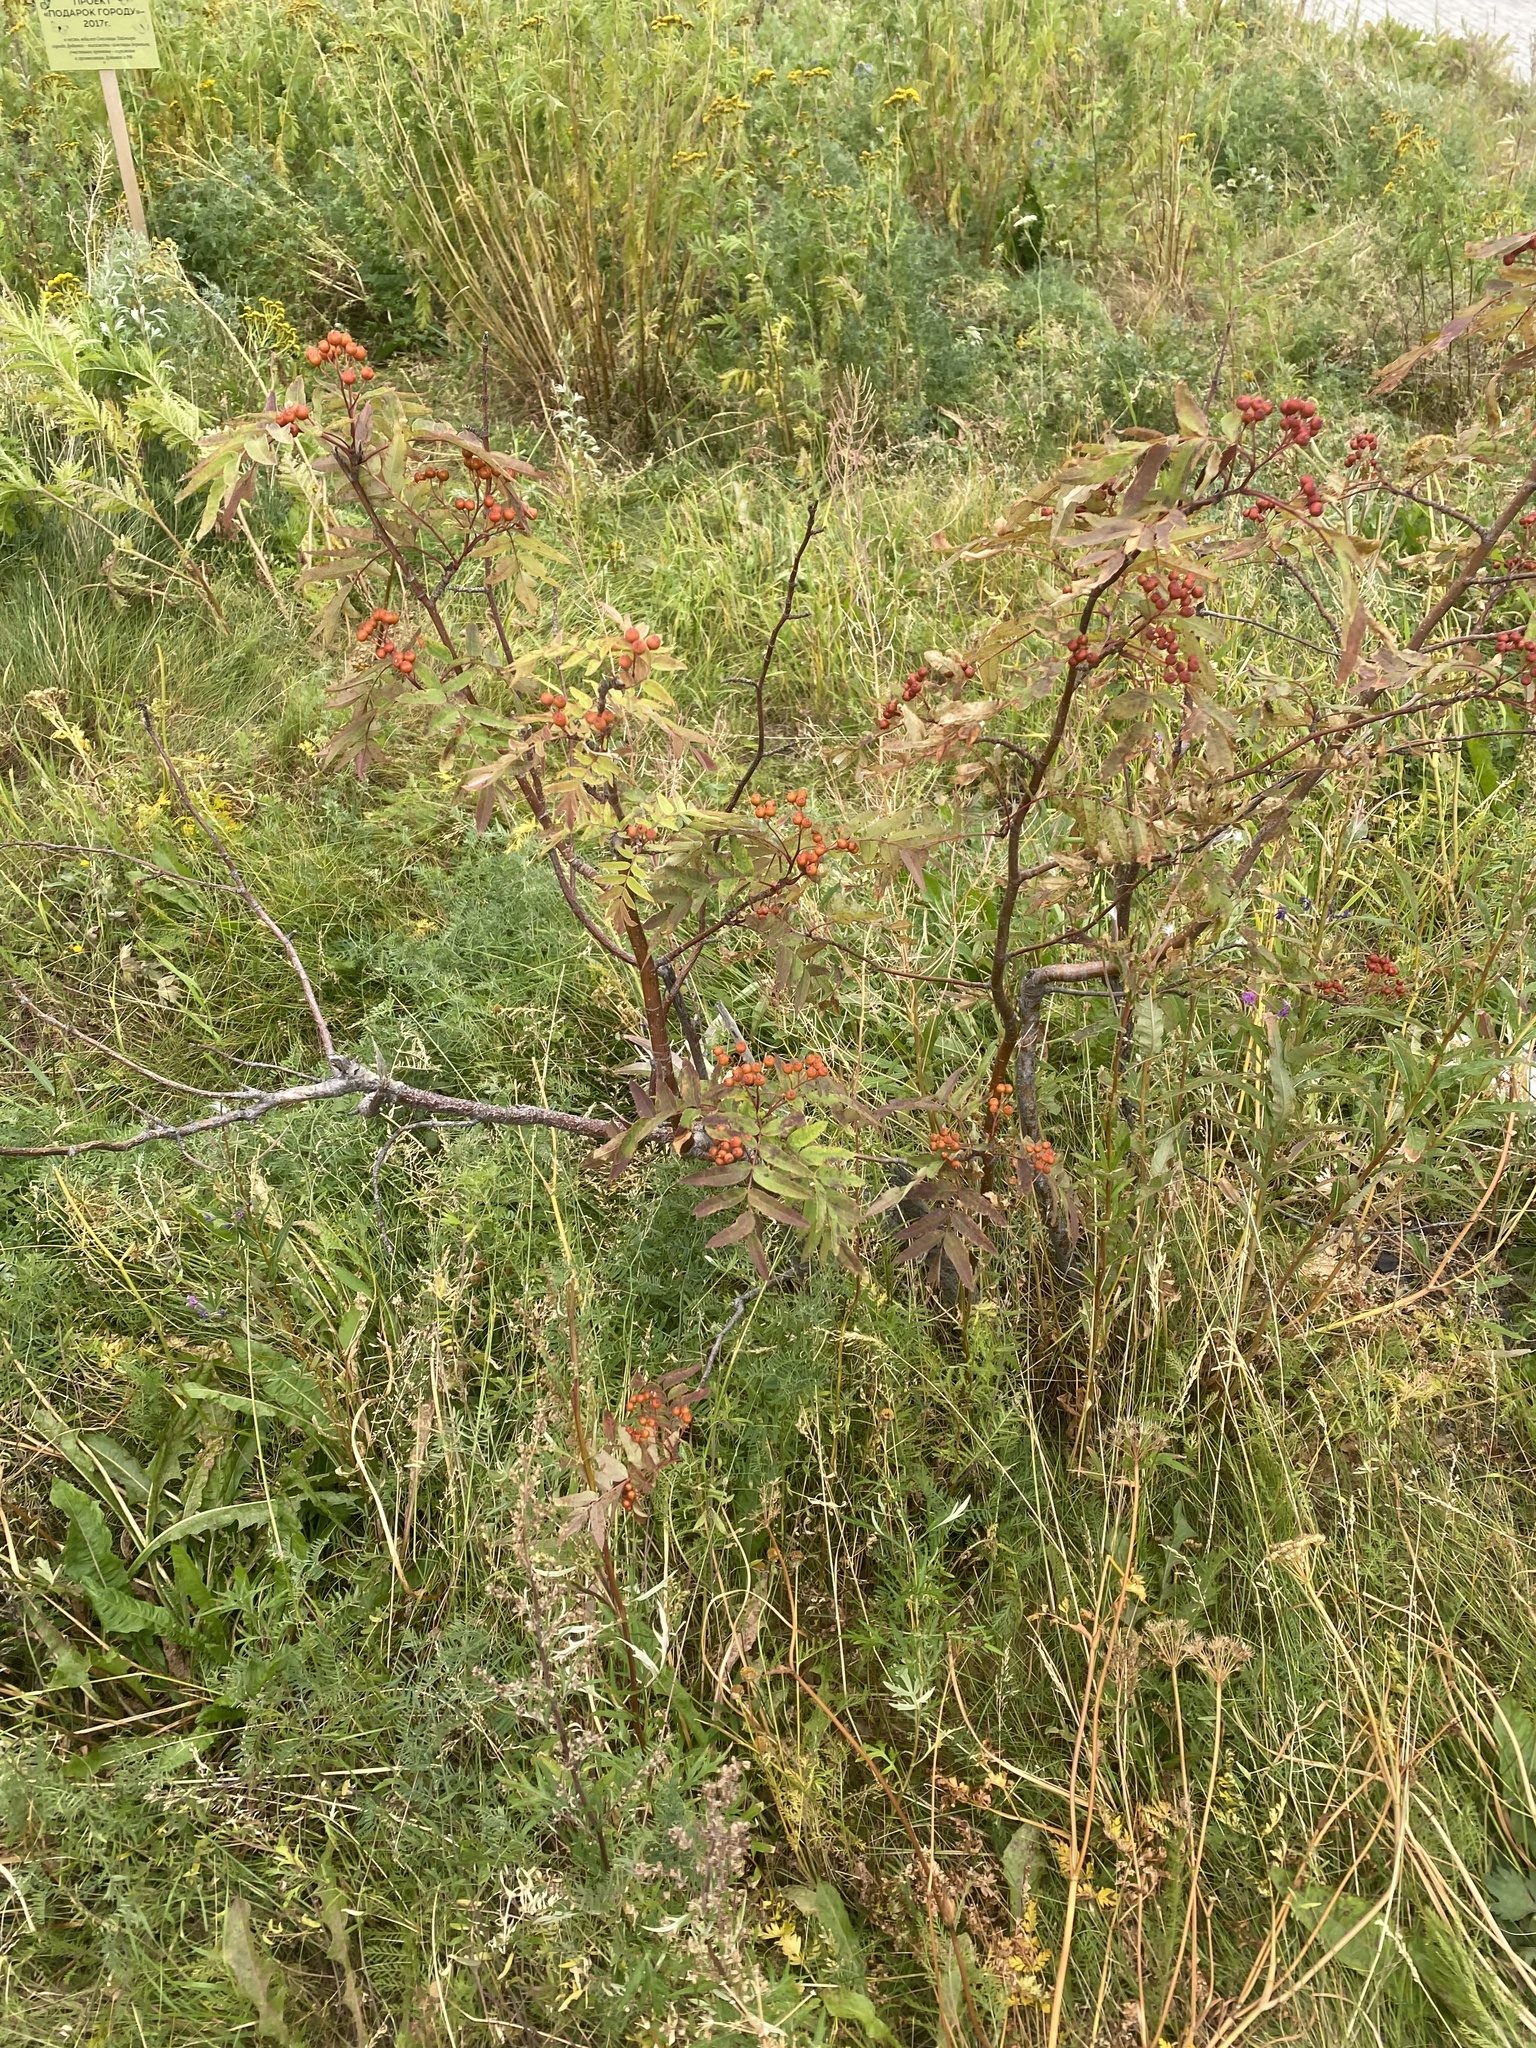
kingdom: Plantae
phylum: Tracheophyta
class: Magnoliopsida
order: Rosales
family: Rosaceae
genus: Sorbus
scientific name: Sorbus aucuparia
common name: Rowan
